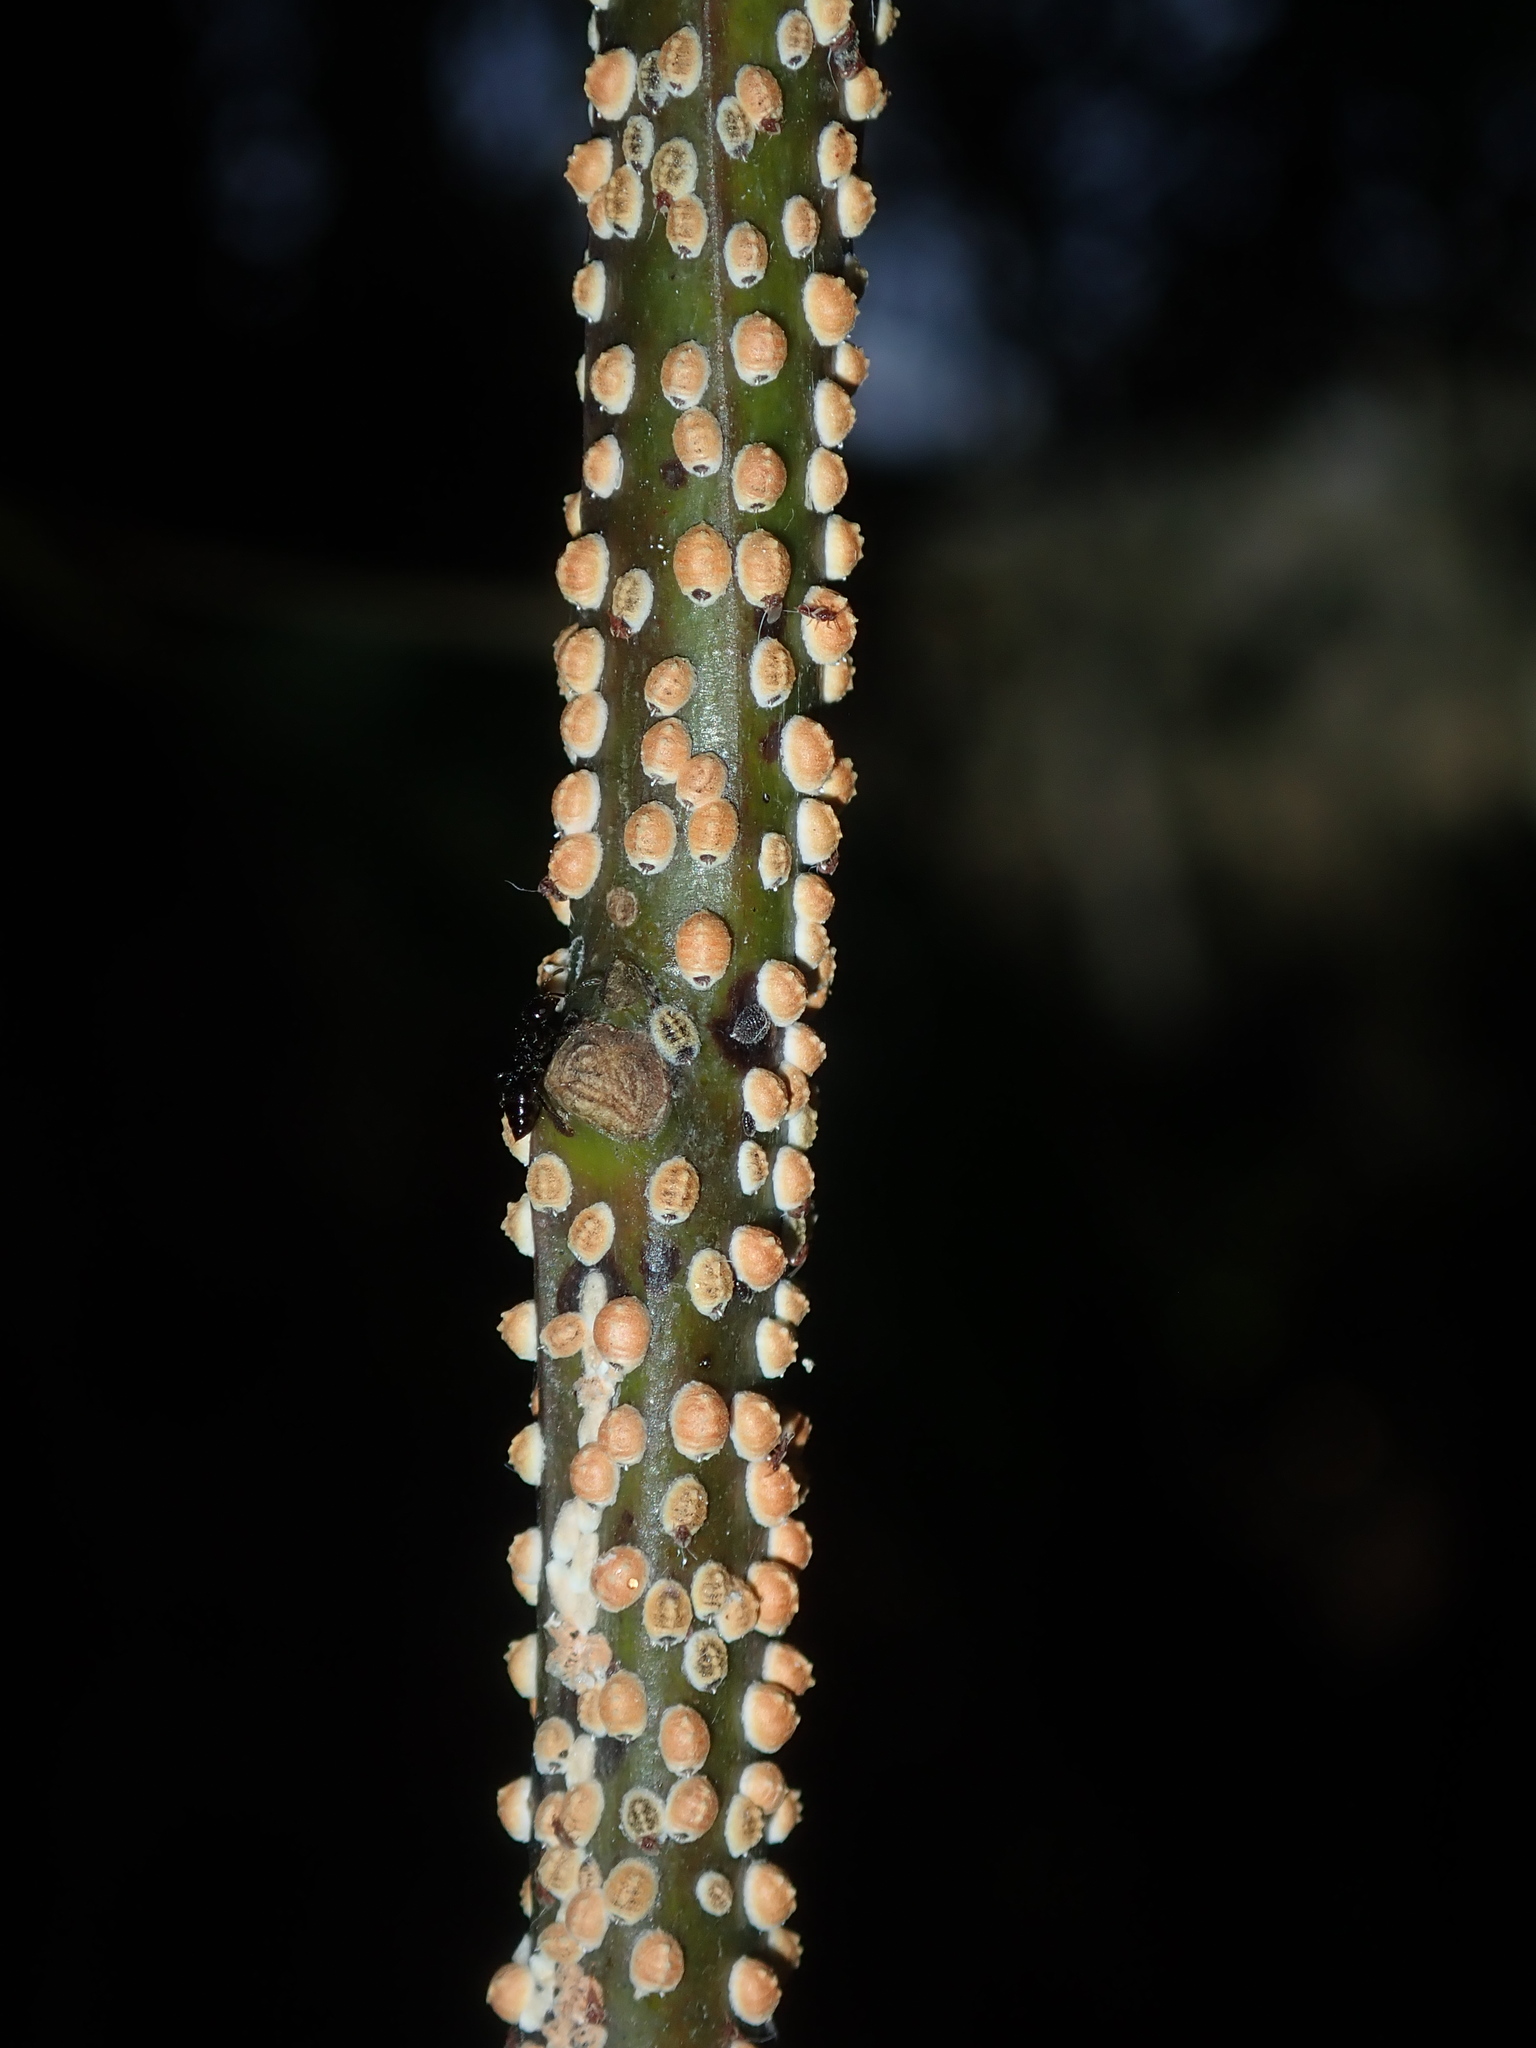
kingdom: Animalia
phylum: Arthropoda
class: Insecta
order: Hemiptera
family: Eriococcidae
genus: Eriococcus
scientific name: Eriococcus coriaceus
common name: Blue gum scale
